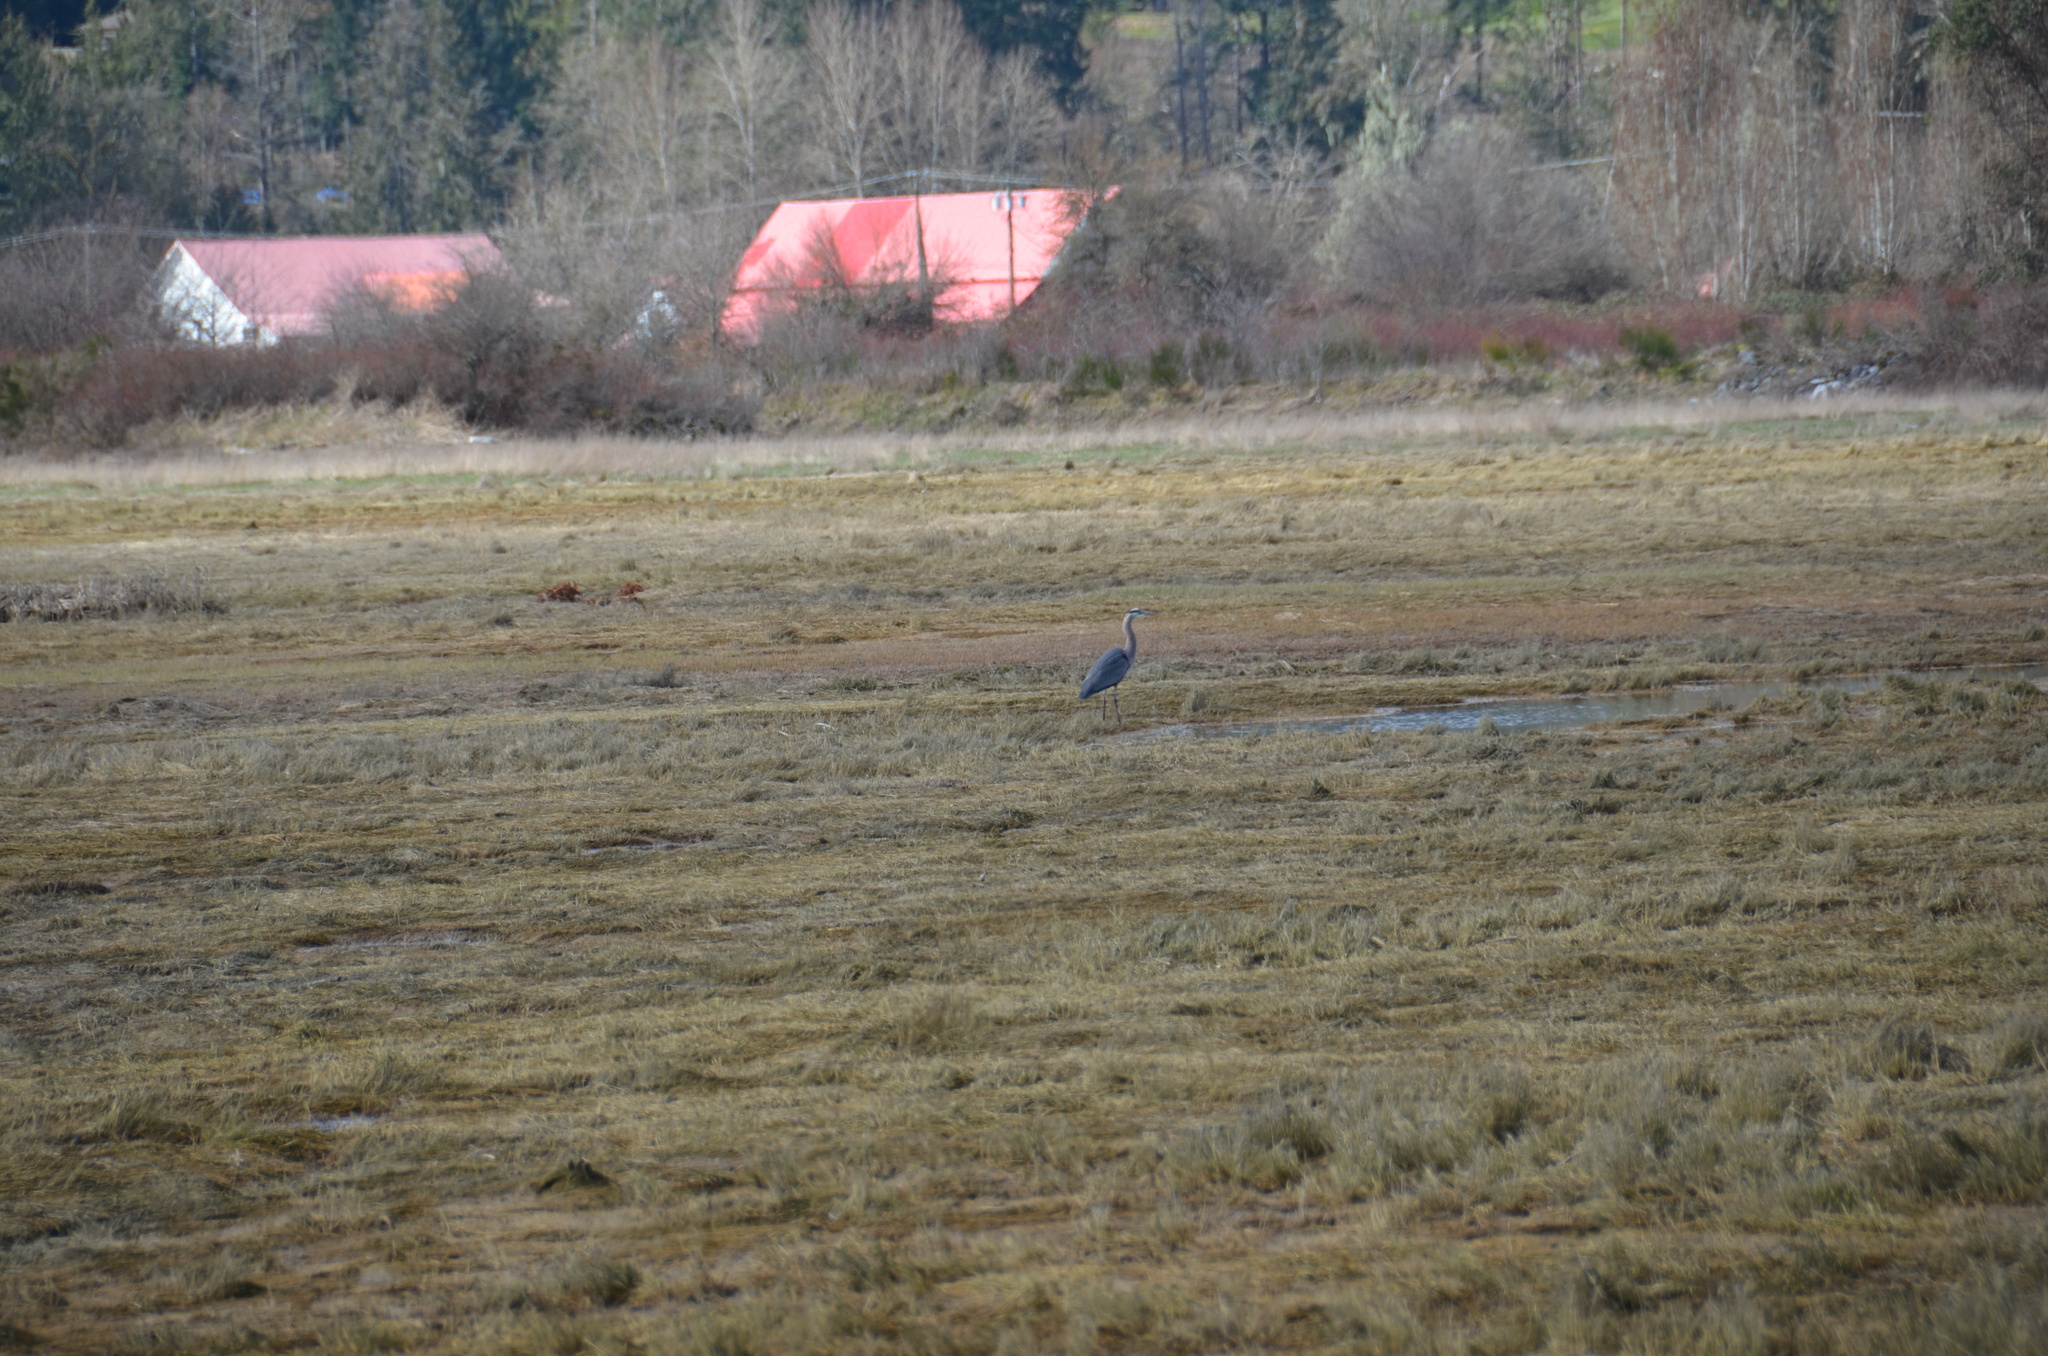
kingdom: Animalia
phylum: Chordata
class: Aves
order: Pelecaniformes
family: Ardeidae
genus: Ardea
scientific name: Ardea herodias
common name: Great blue heron
